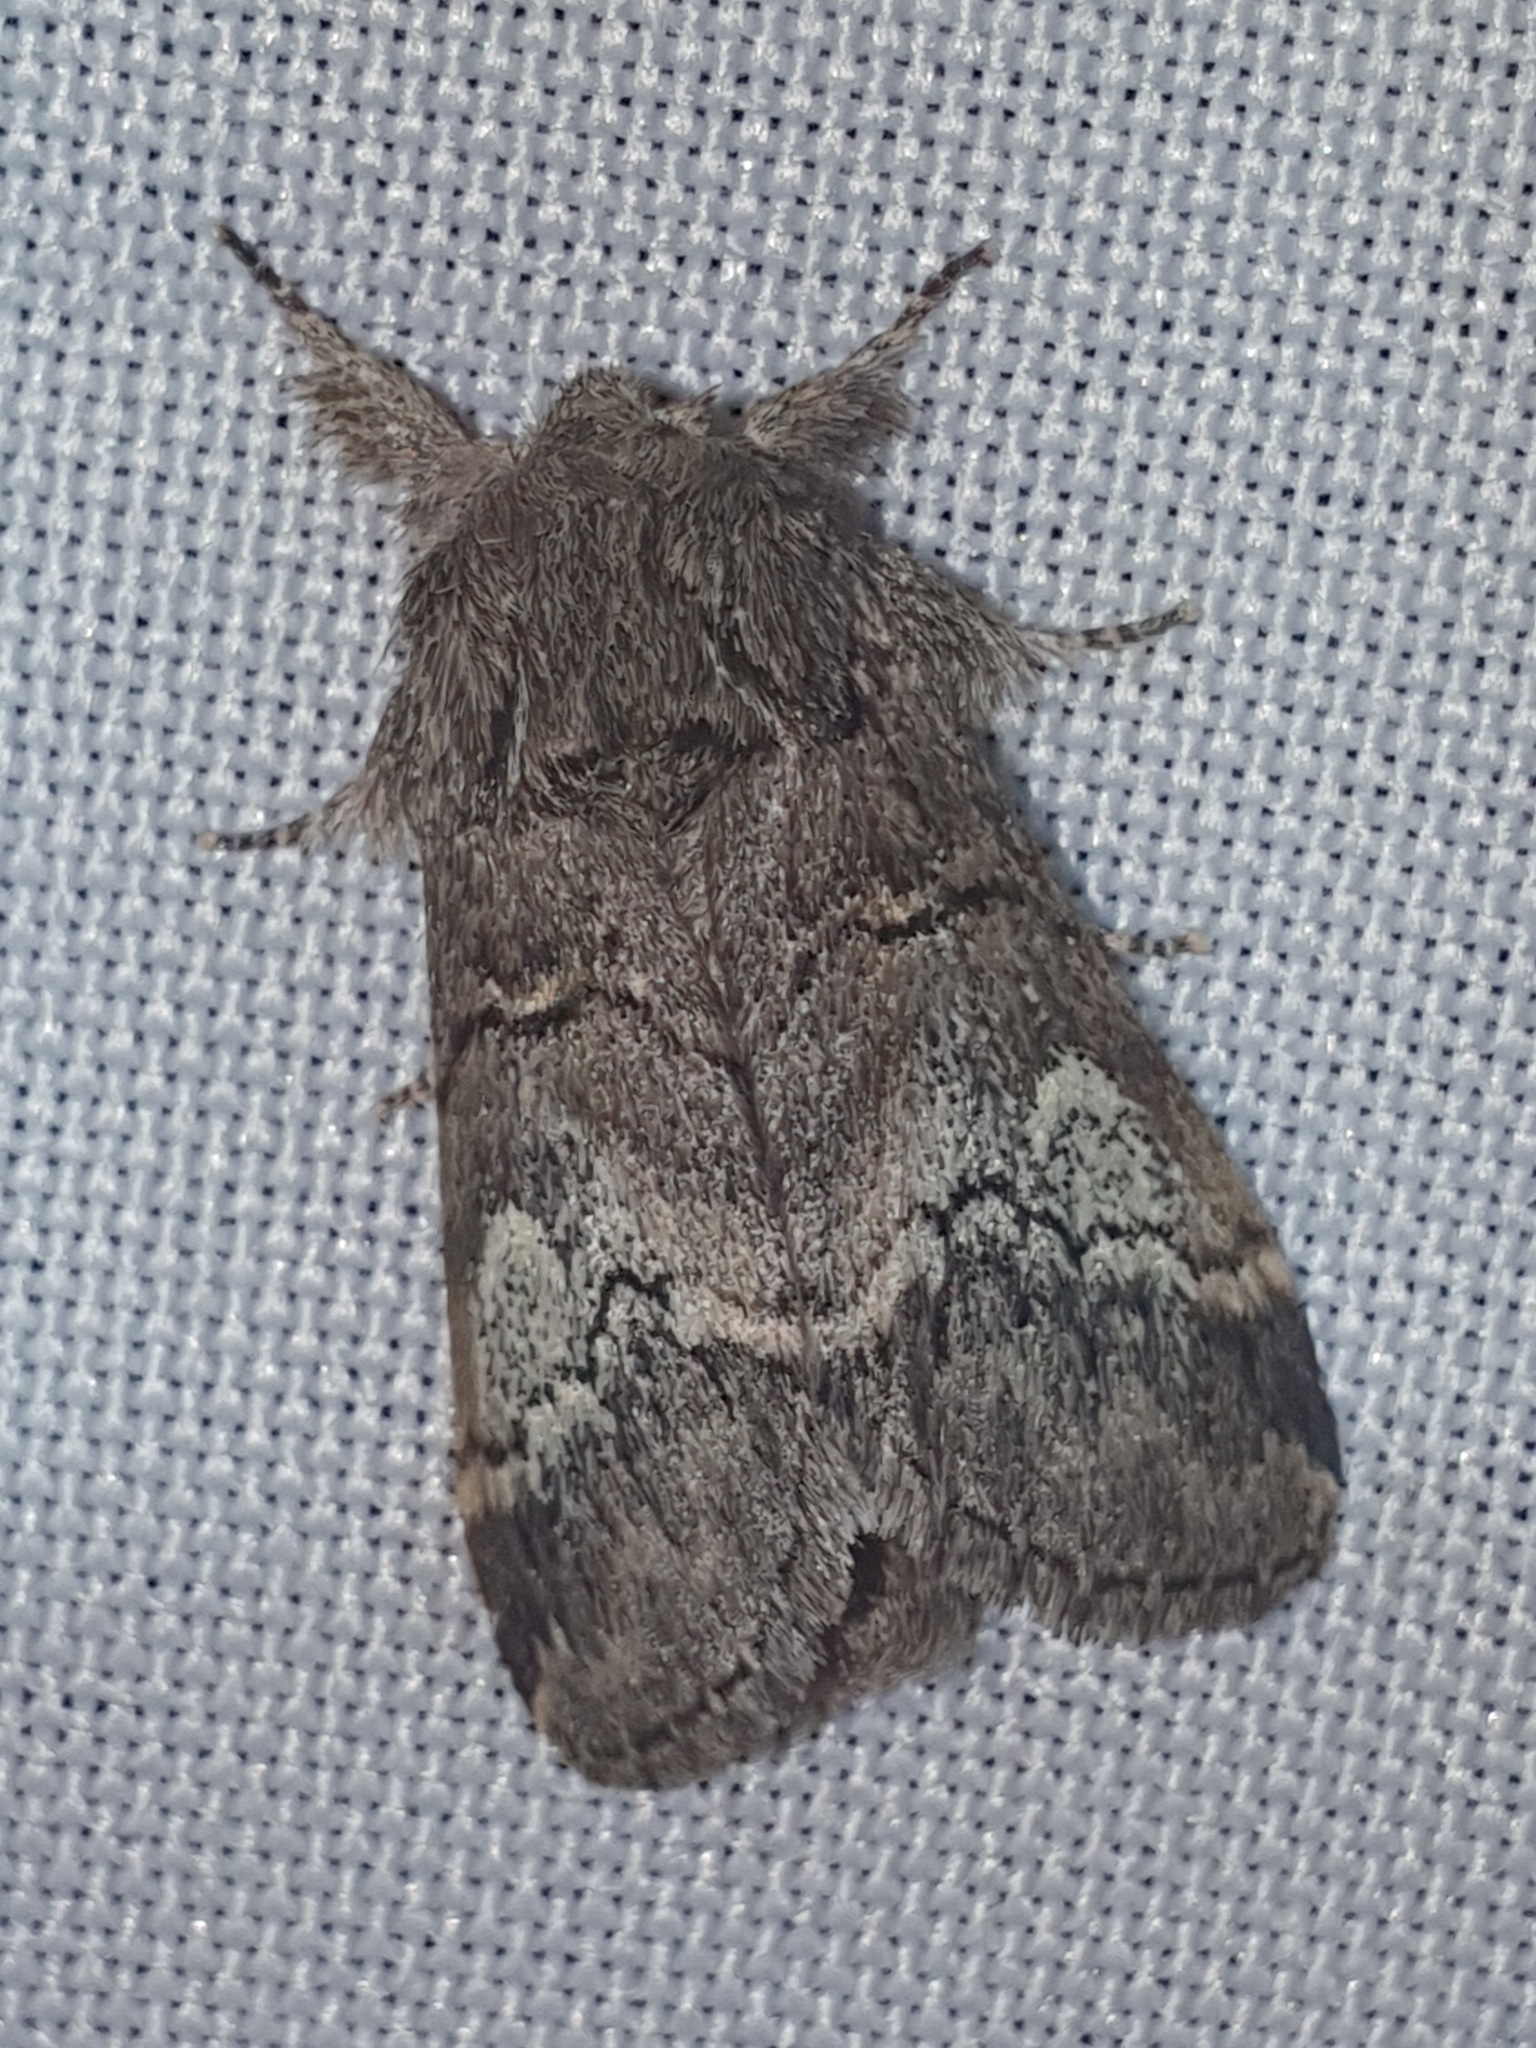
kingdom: Animalia
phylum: Arthropoda
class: Insecta
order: Lepidoptera
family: Notodontidae
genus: Drymonia
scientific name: Drymonia querna
